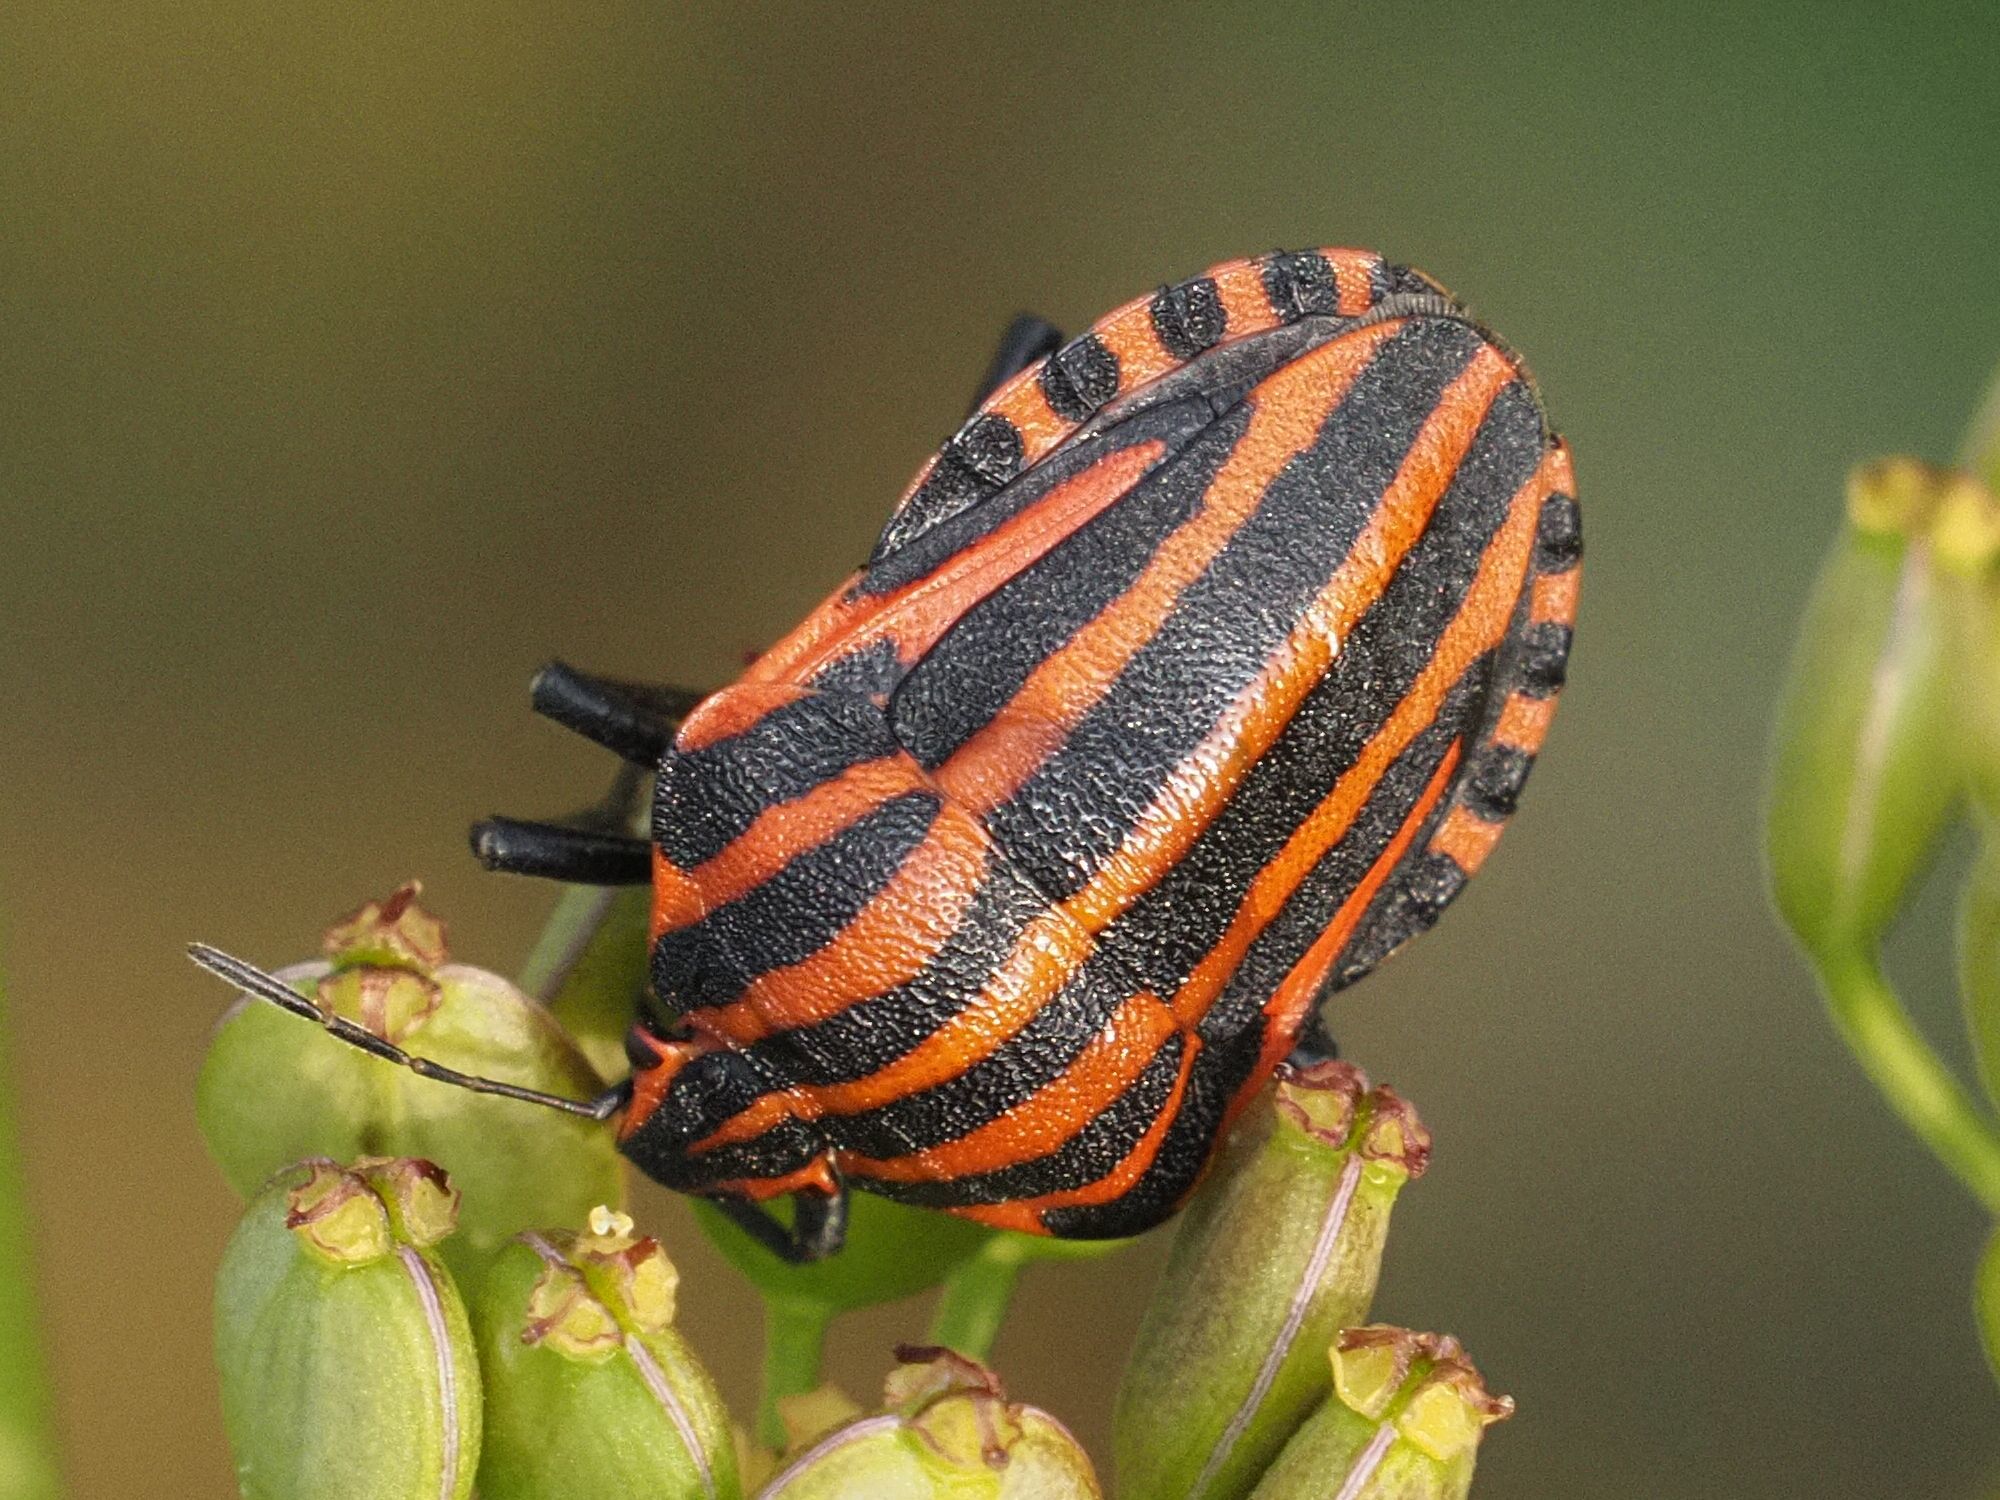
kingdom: Animalia
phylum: Arthropoda
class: Insecta
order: Hemiptera
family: Pentatomidae
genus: Graphosoma
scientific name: Graphosoma italicum
